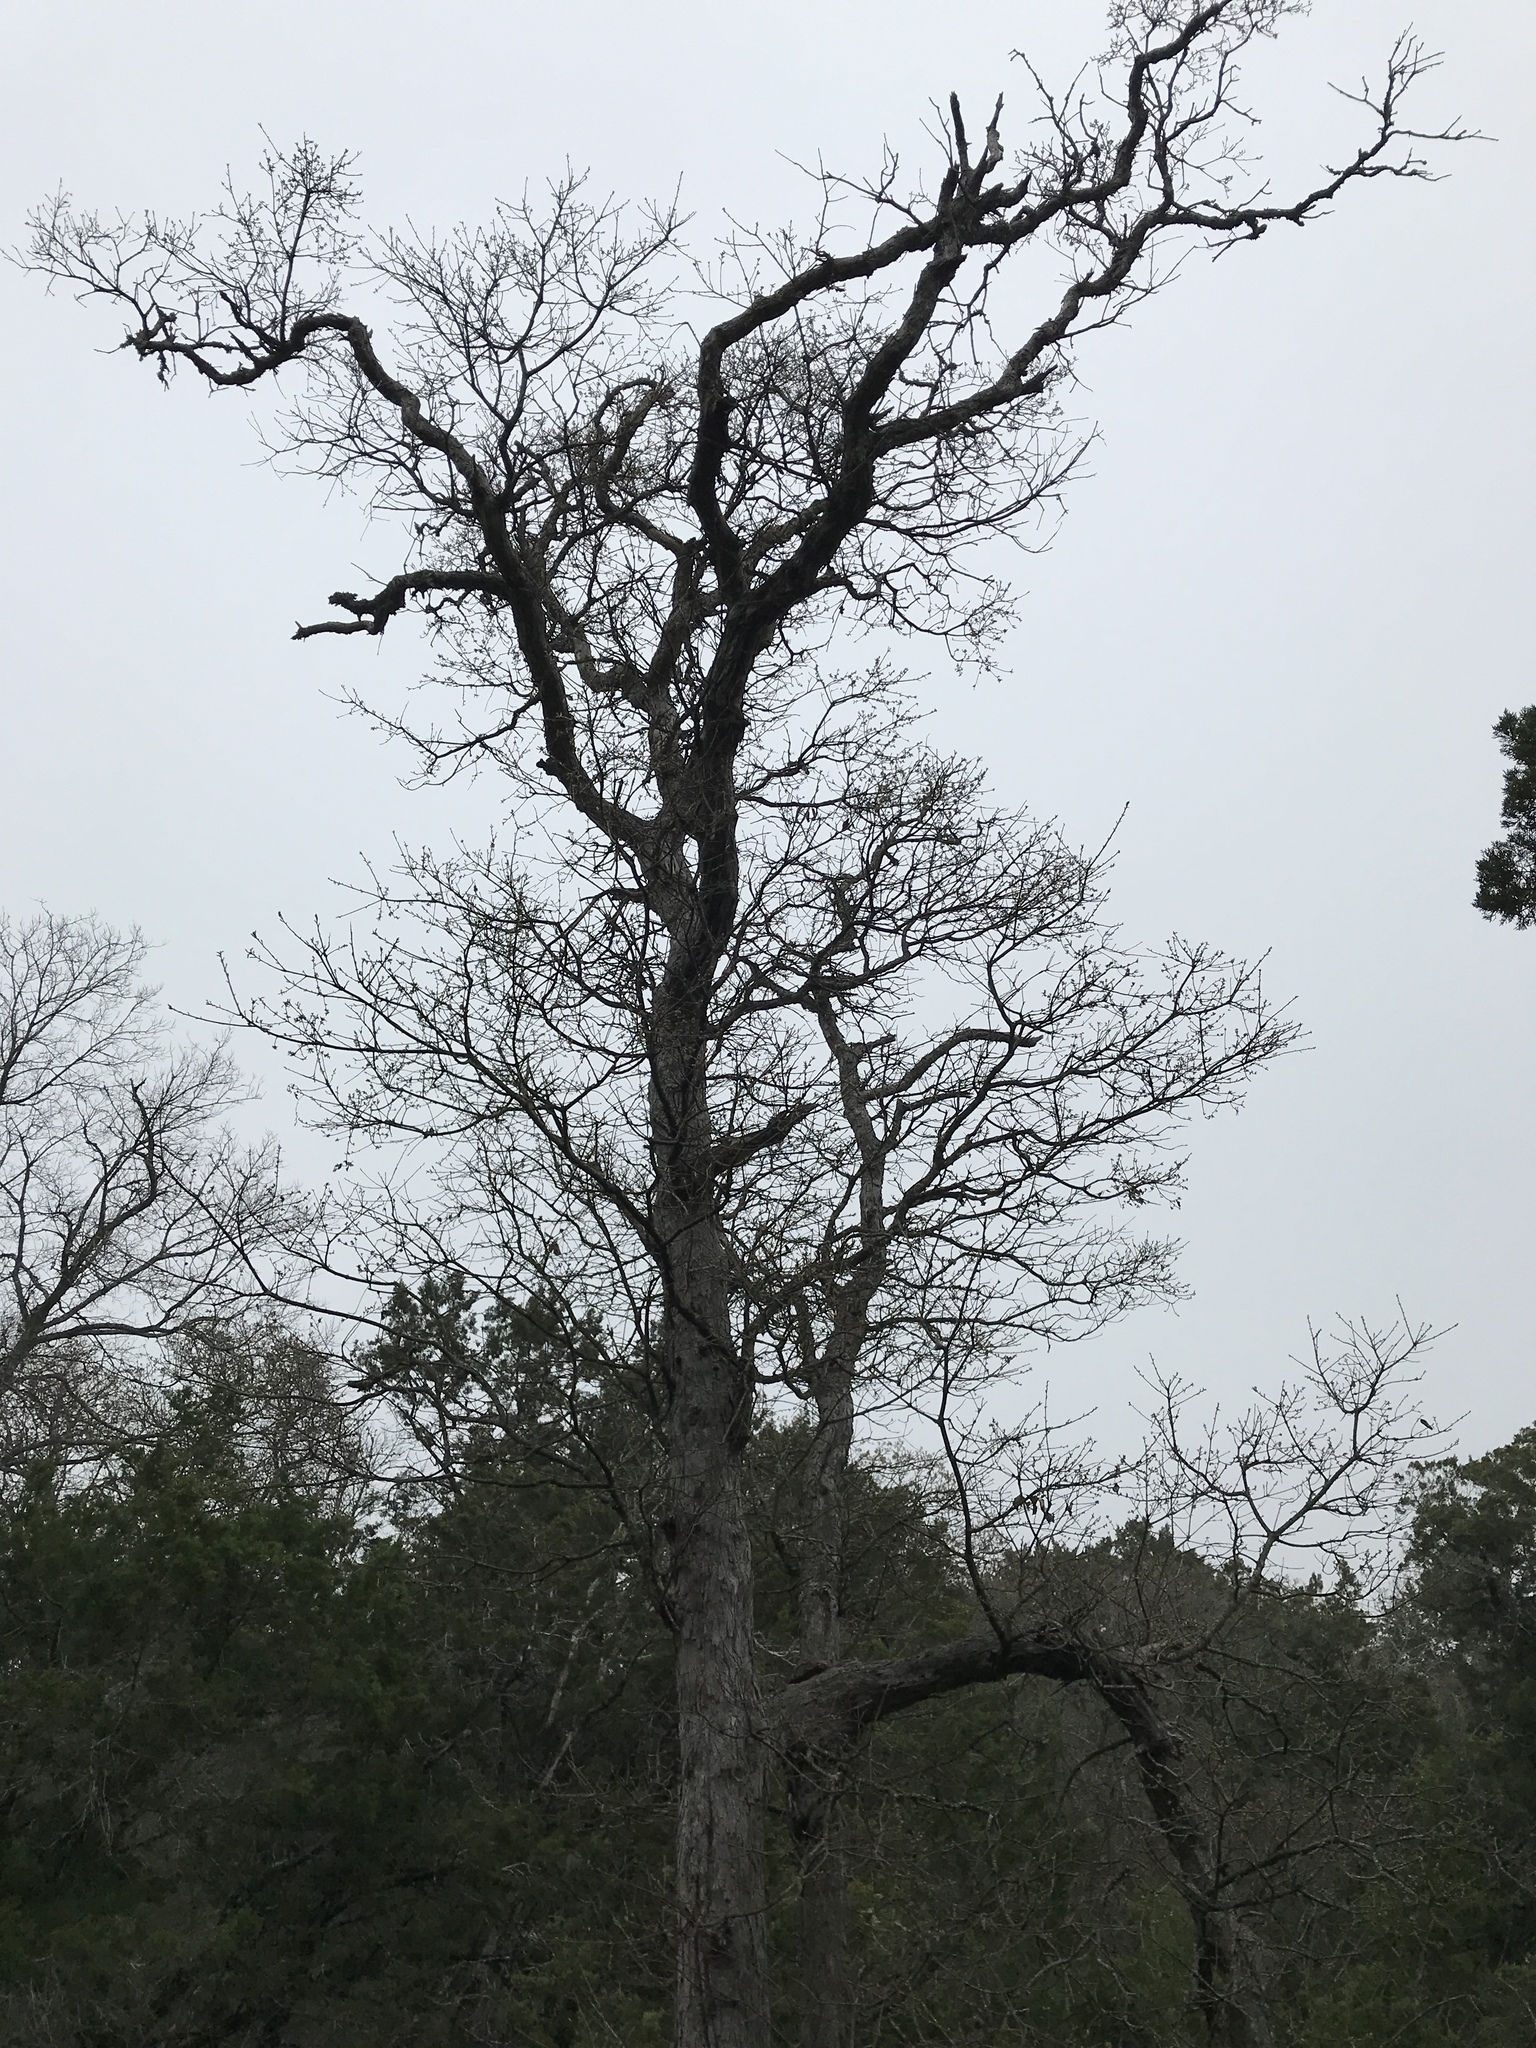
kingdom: Plantae
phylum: Tracheophyta
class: Magnoliopsida
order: Fagales
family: Fagaceae
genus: Quercus
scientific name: Quercus sinuata
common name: Durand oak
